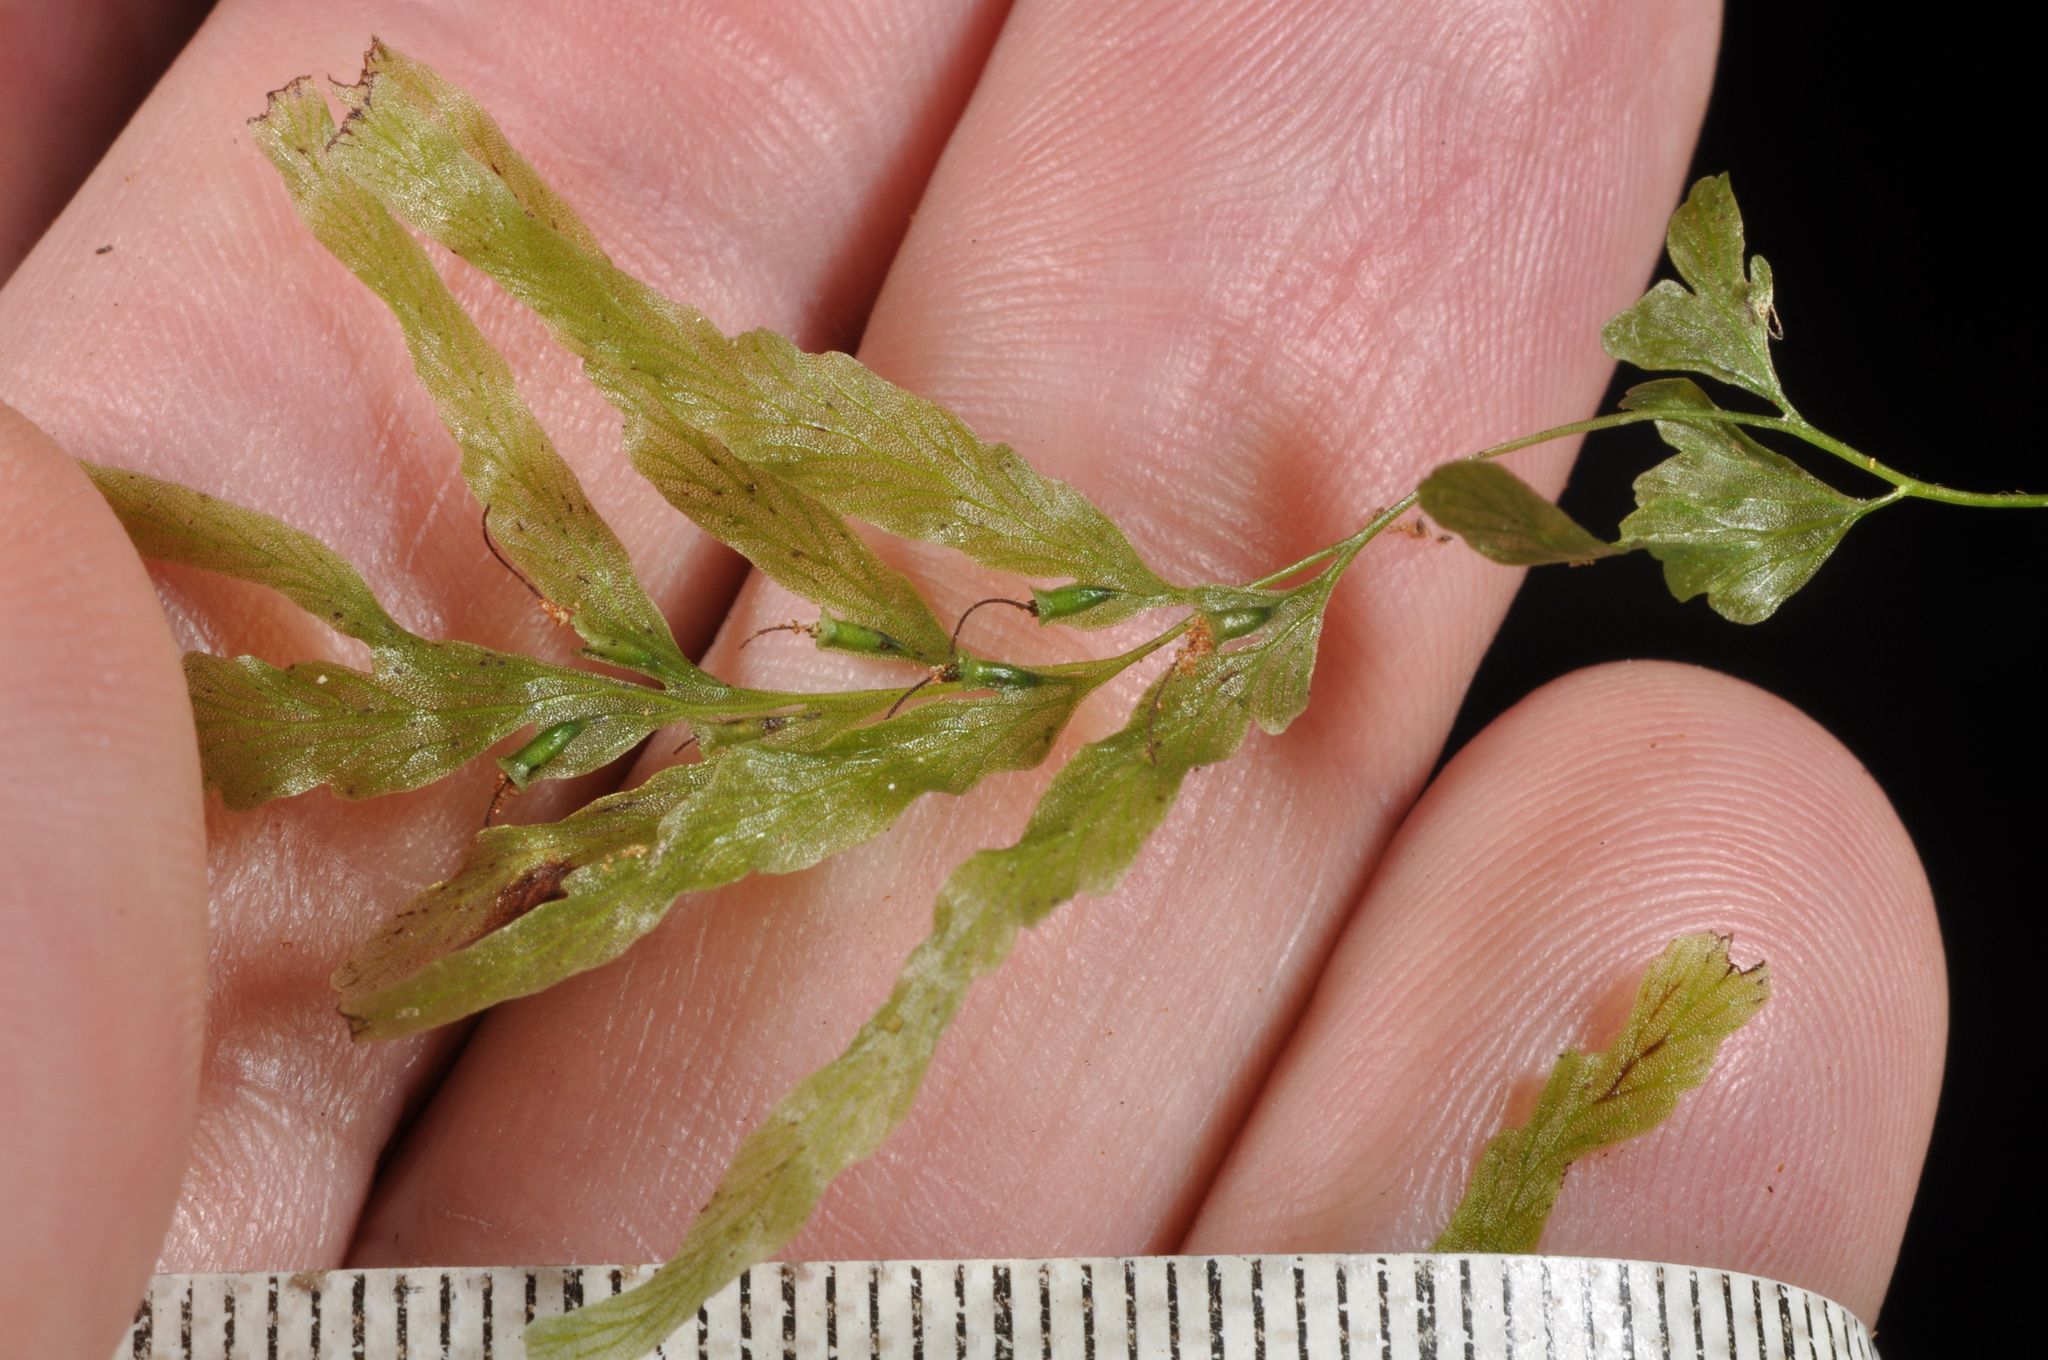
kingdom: Plantae
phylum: Tracheophyta
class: Polypodiopsida
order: Hymenophyllales
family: Hymenophyllaceae
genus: Polyphlebium
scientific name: Polyphlebium venosum
